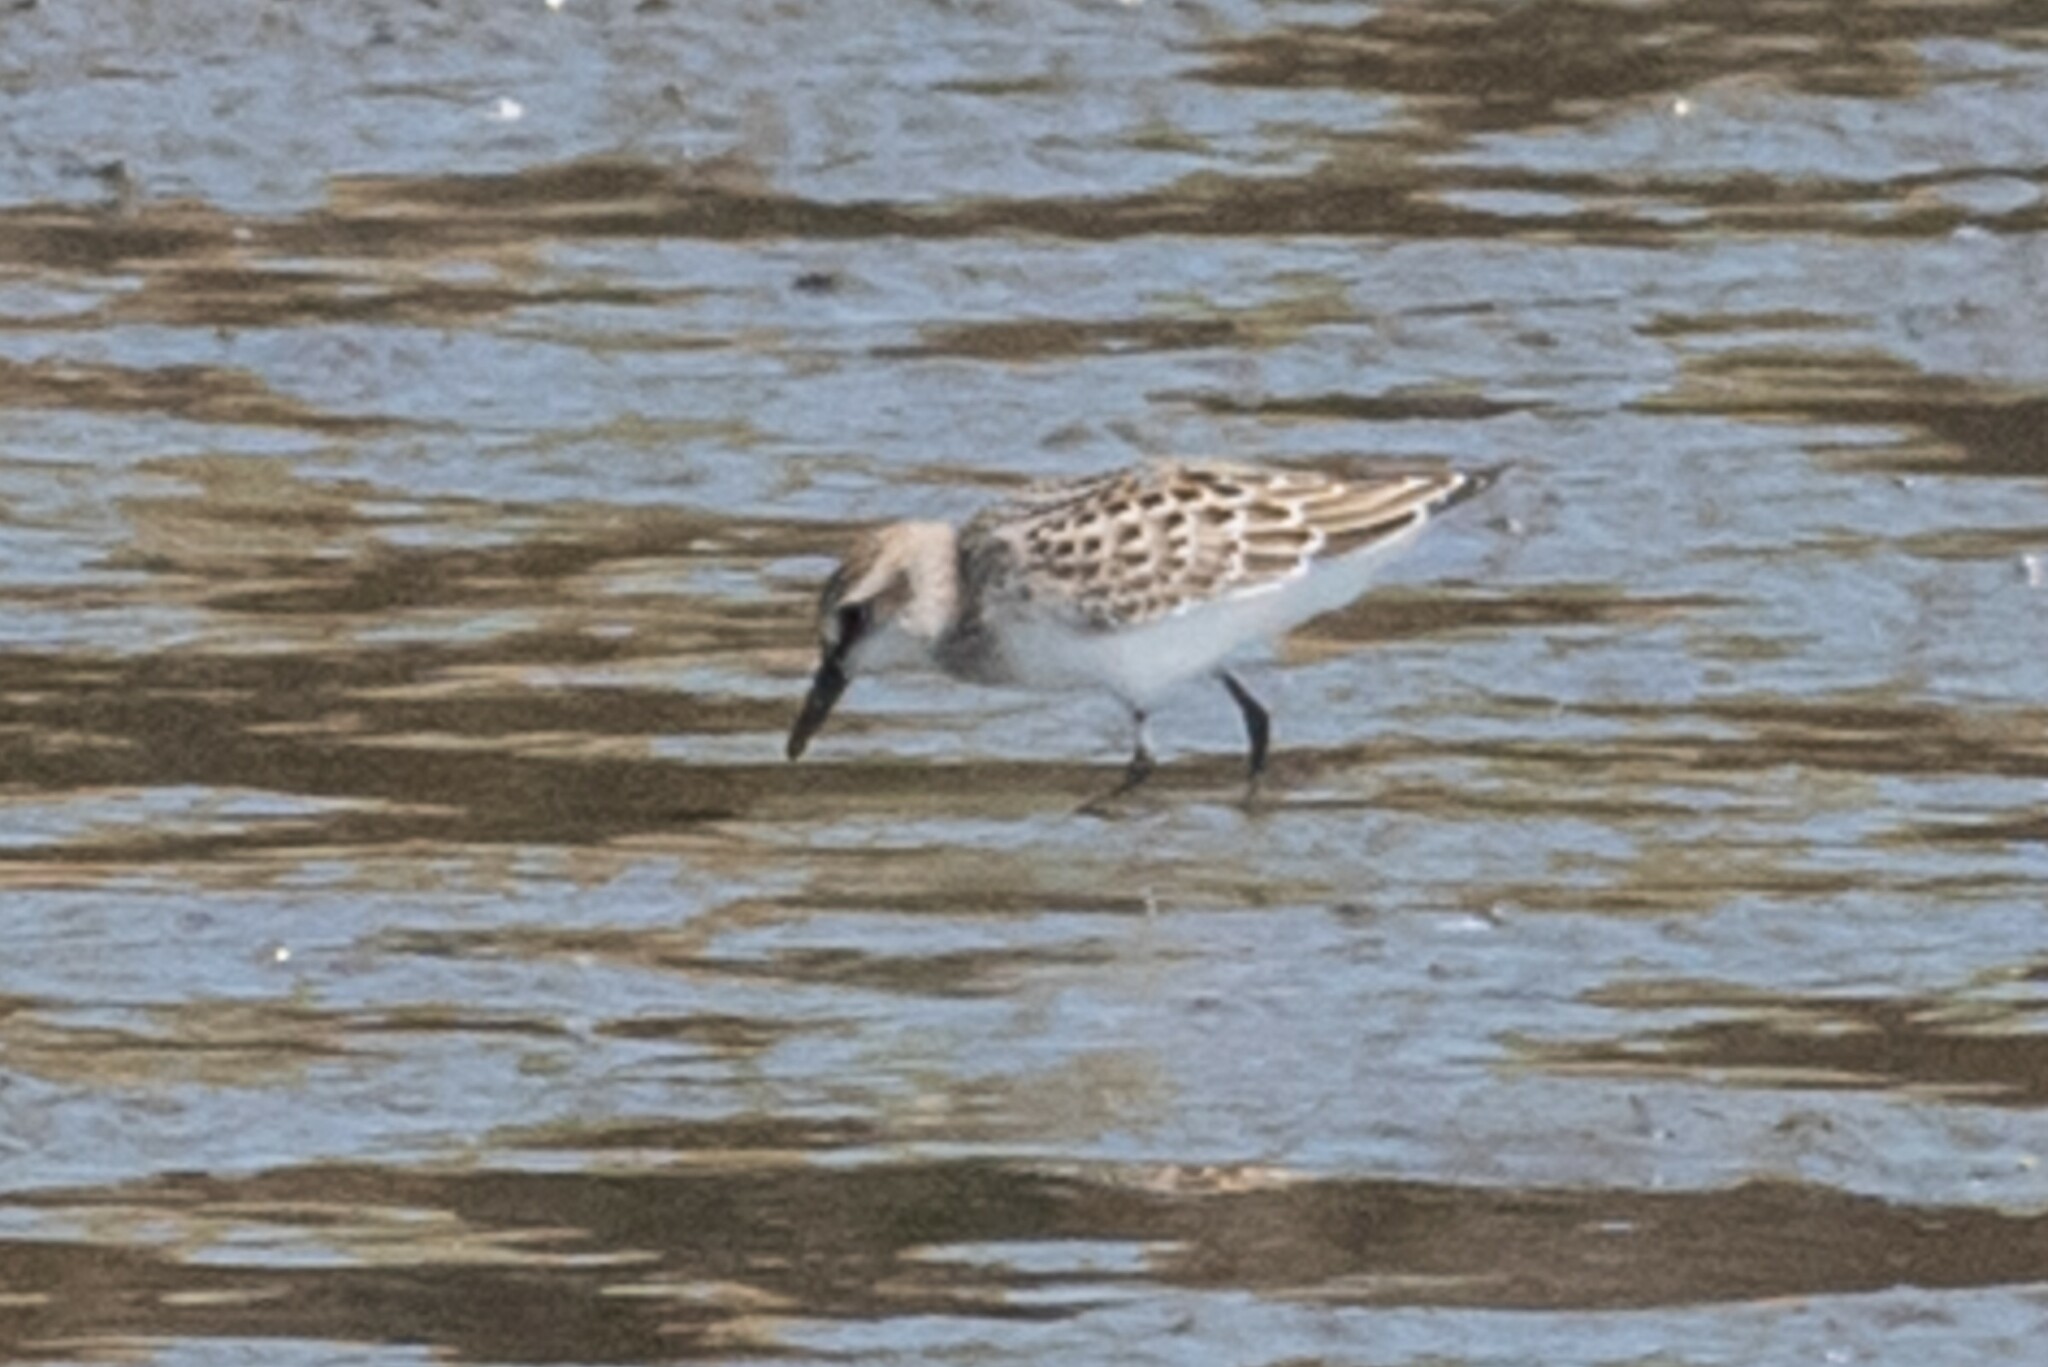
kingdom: Animalia
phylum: Chordata
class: Aves
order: Charadriiformes
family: Scolopacidae
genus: Calidris
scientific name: Calidris pusilla
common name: Semipalmated sandpiper
